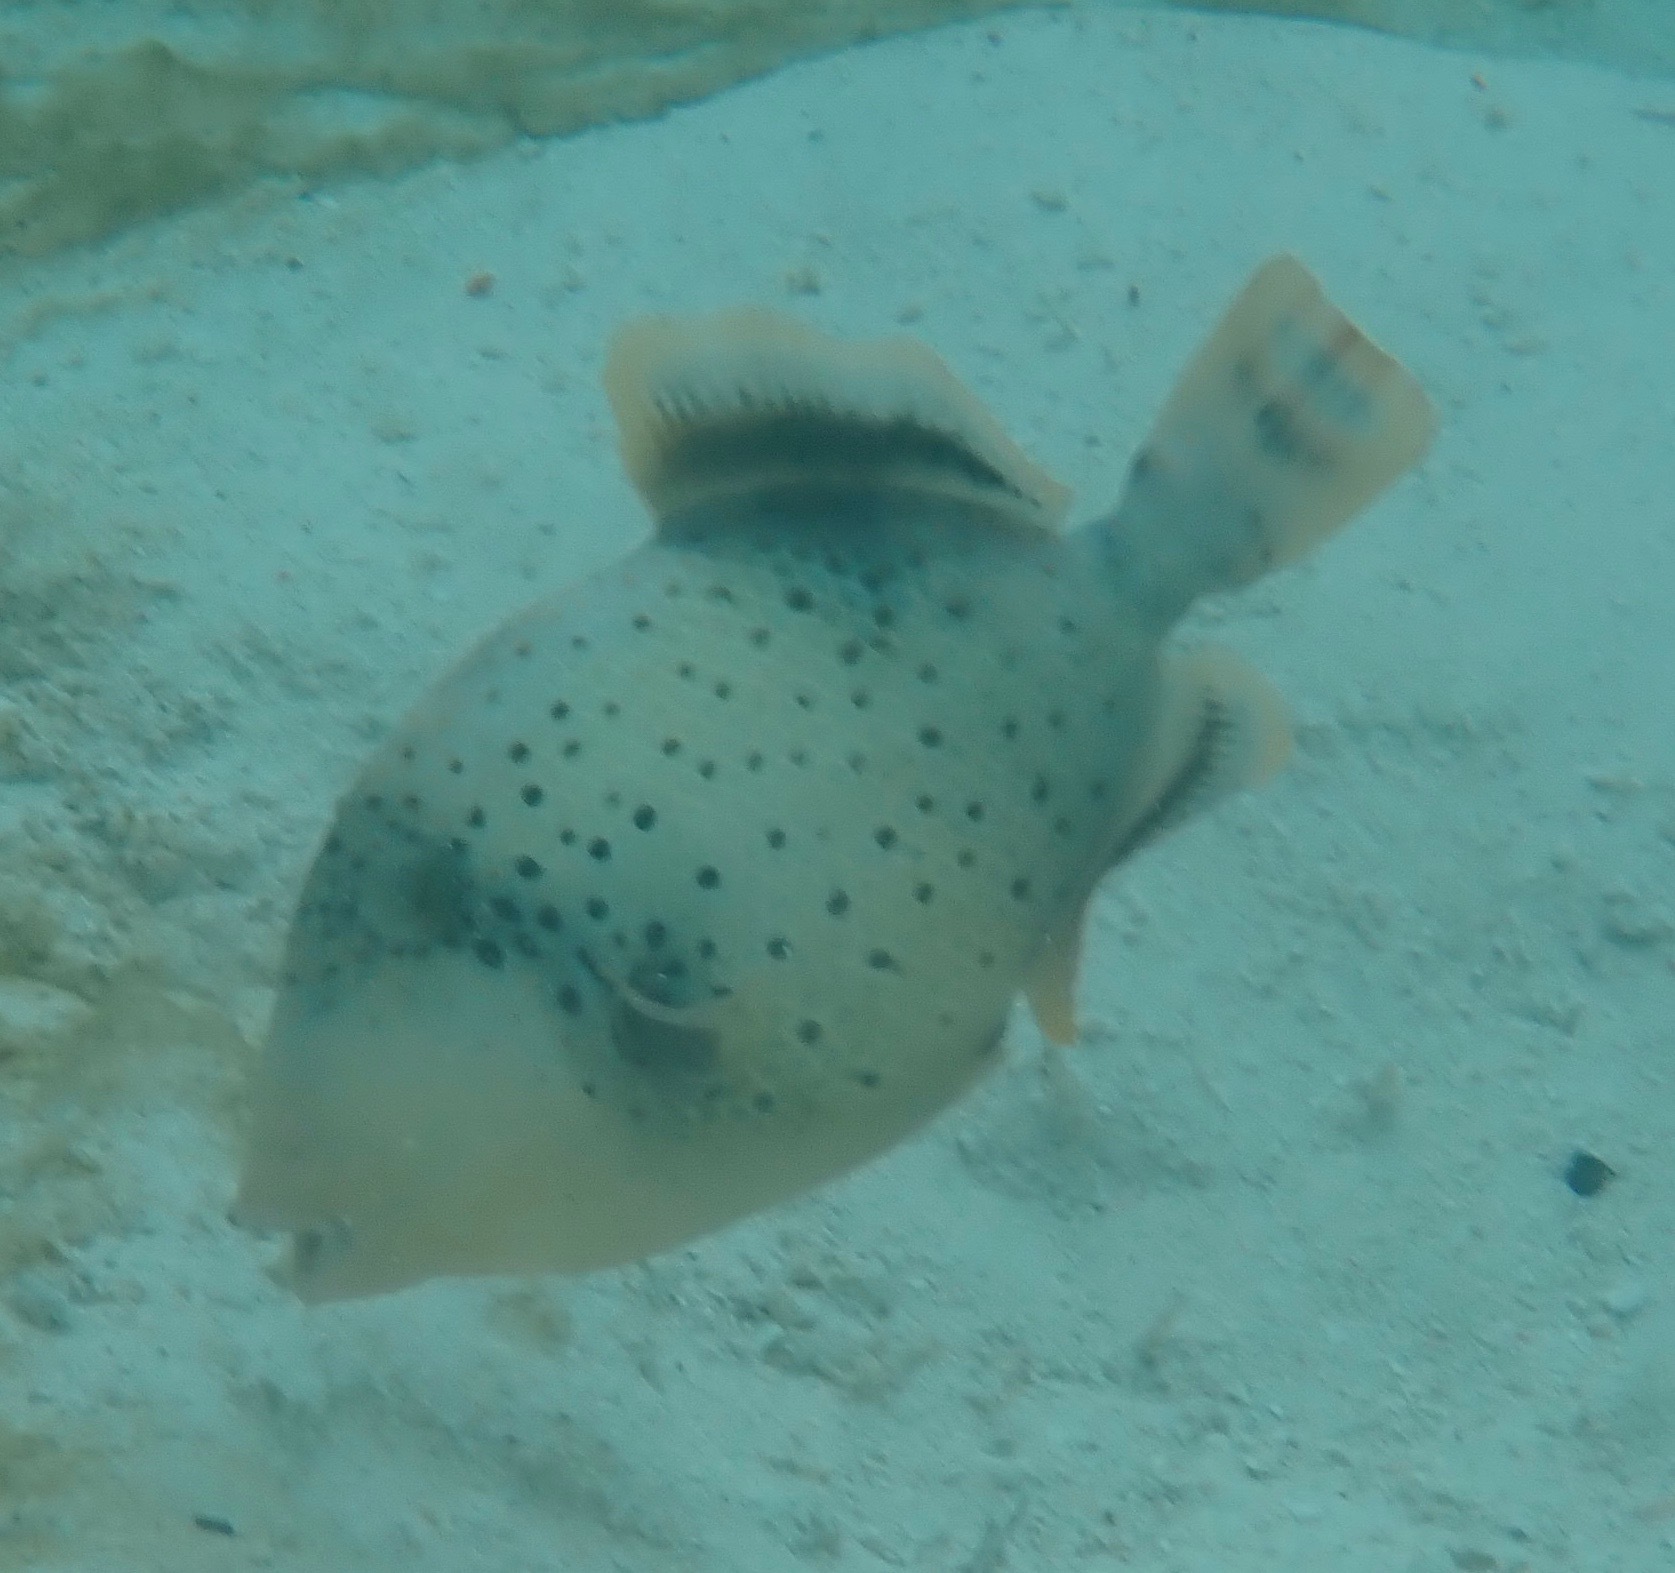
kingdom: Animalia
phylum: Chordata
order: Tetraodontiformes
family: Balistidae
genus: Pseudobalistes
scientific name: Pseudobalistes flavimarginatus
